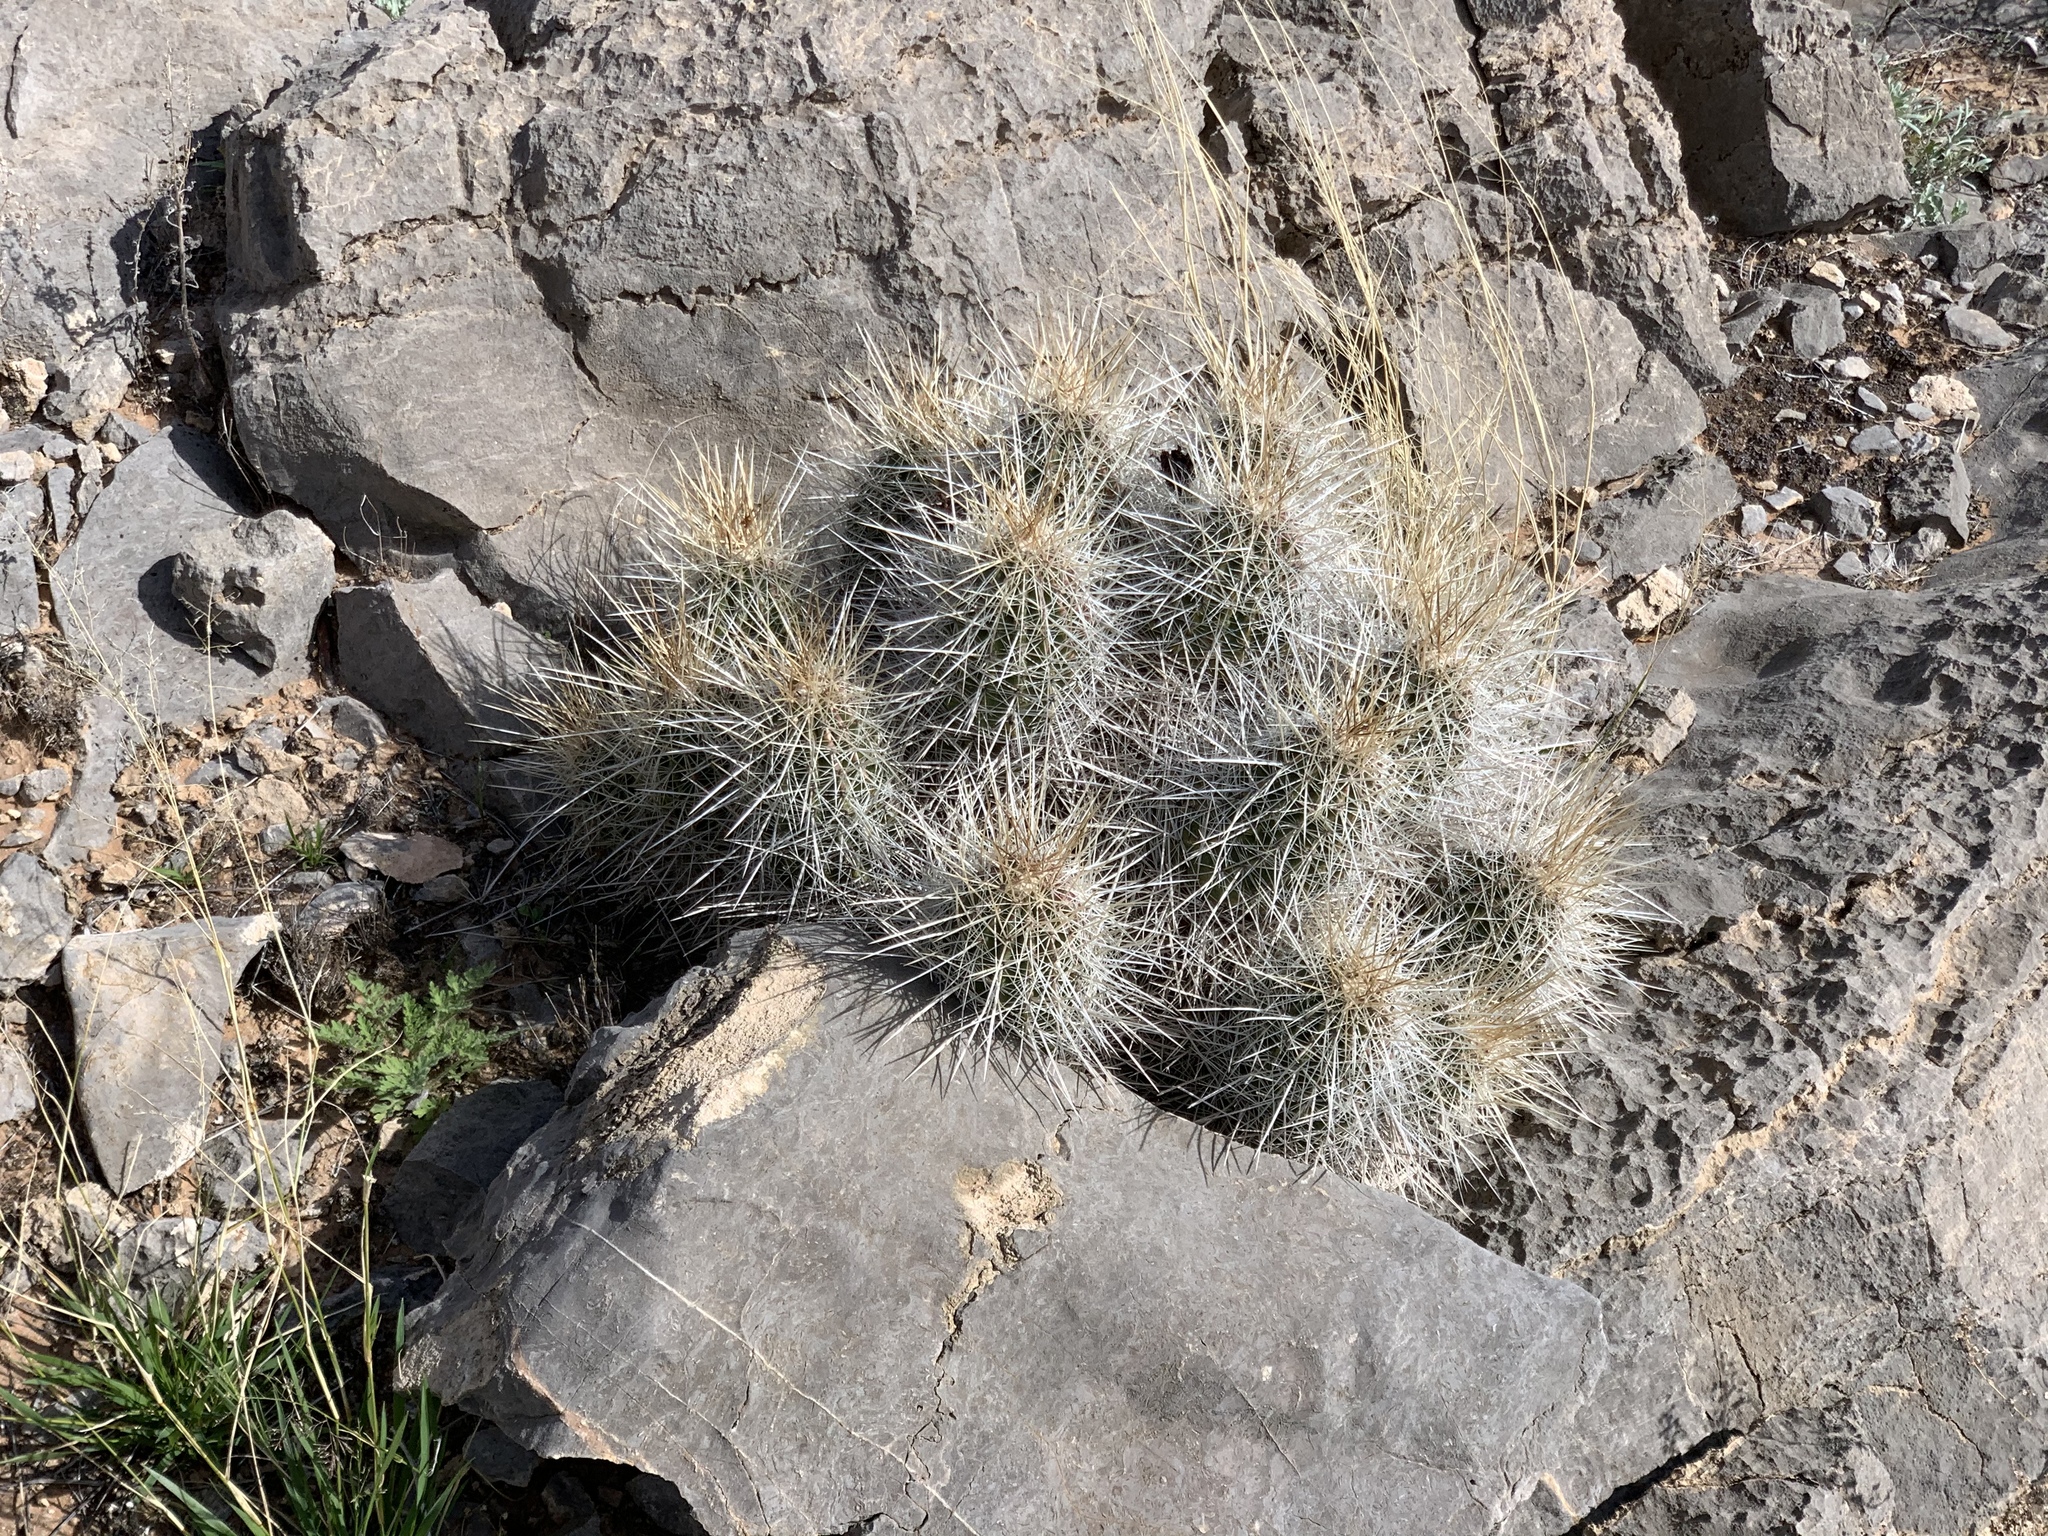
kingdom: Plantae
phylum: Tracheophyta
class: Magnoliopsida
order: Caryophyllales
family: Cactaceae
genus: Echinocereus
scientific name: Echinocereus stramineus
